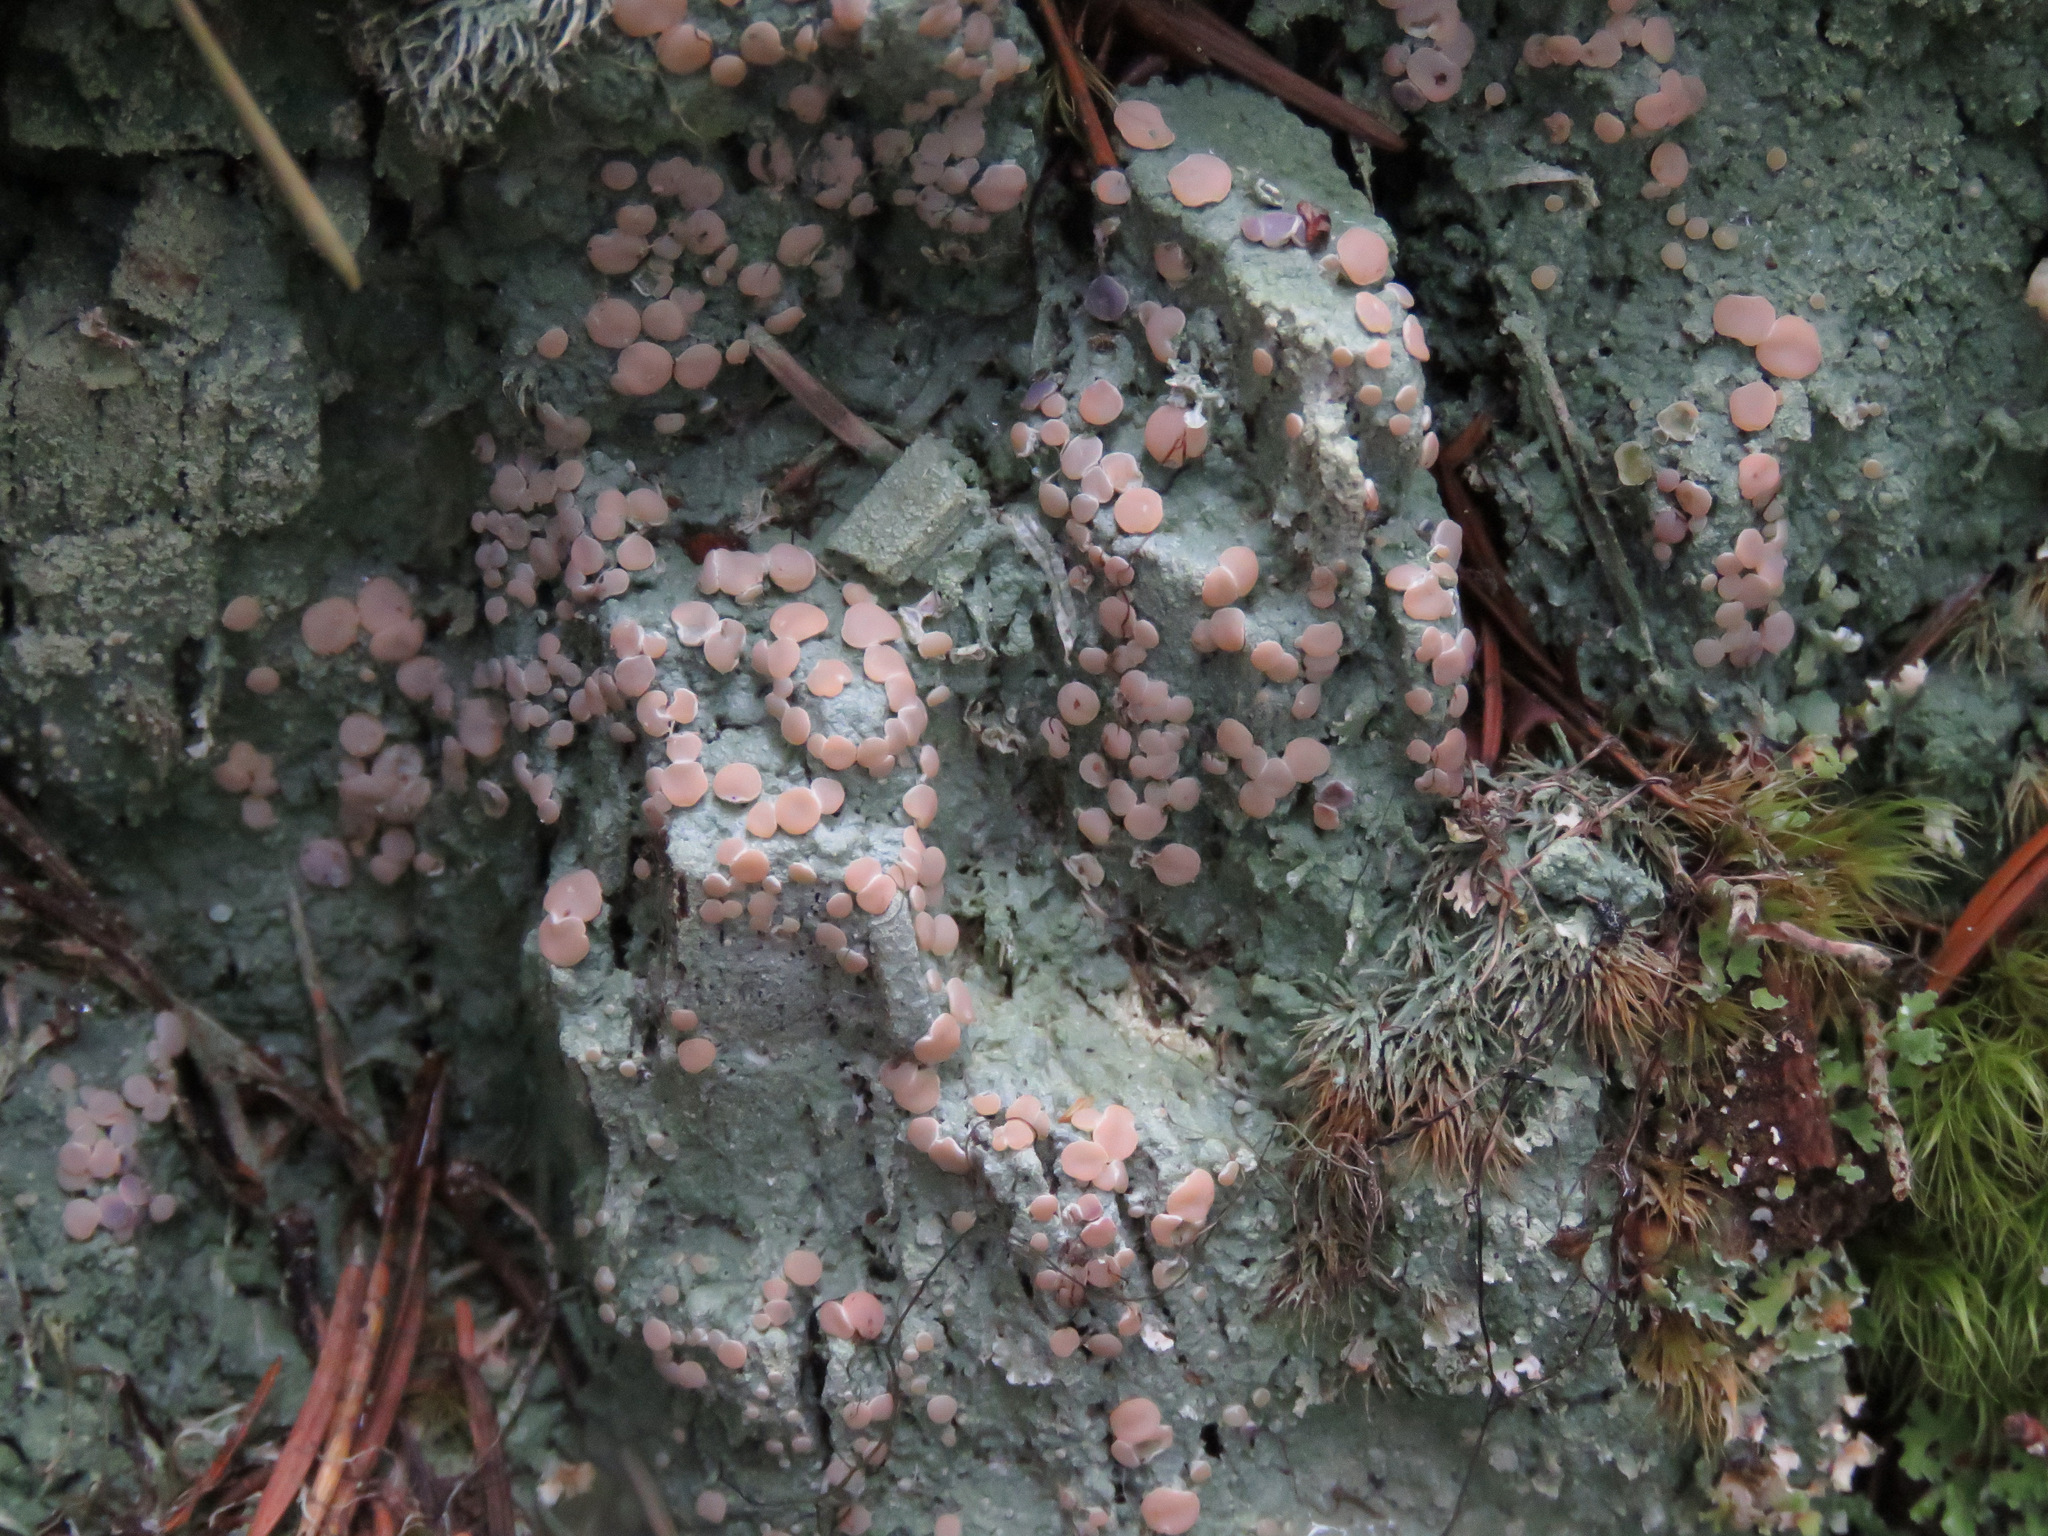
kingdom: Fungi
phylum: Ascomycota
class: Lecanoromycetes
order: Pertusariales
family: Icmadophilaceae
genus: Icmadophila
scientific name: Icmadophila ericetorum
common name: Candy lichen
